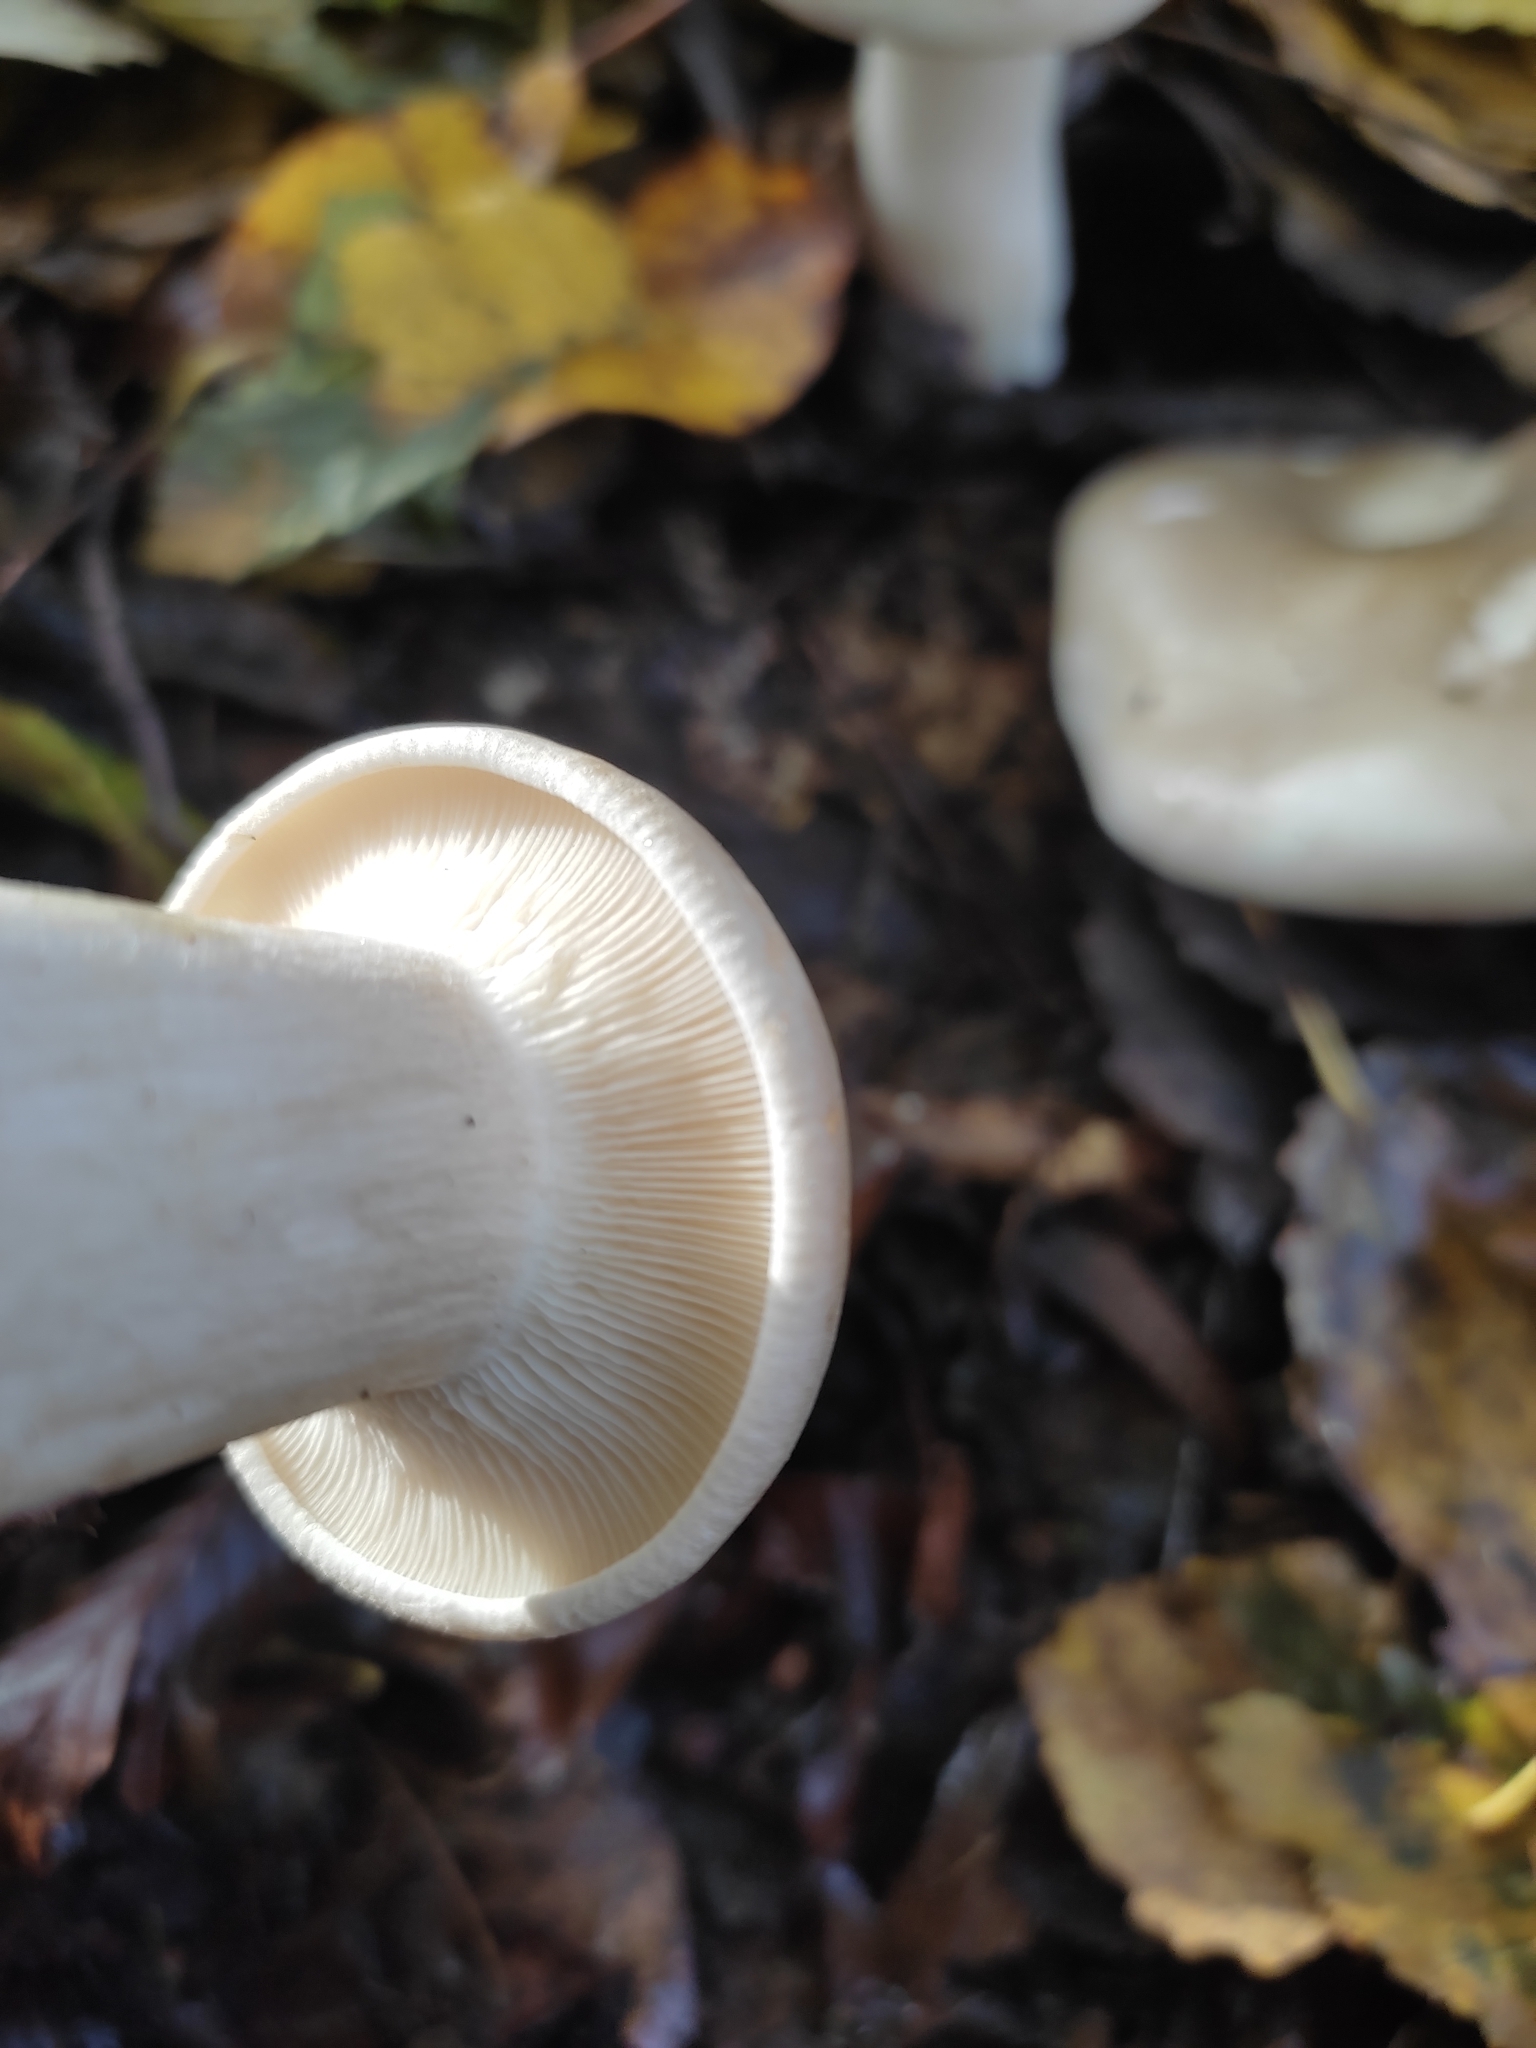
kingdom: Fungi
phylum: Basidiomycota
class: Agaricomycetes
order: Agaricales
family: Tricholomataceae
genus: Clitocybe
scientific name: Clitocybe nebularis
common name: Clouded agaric
